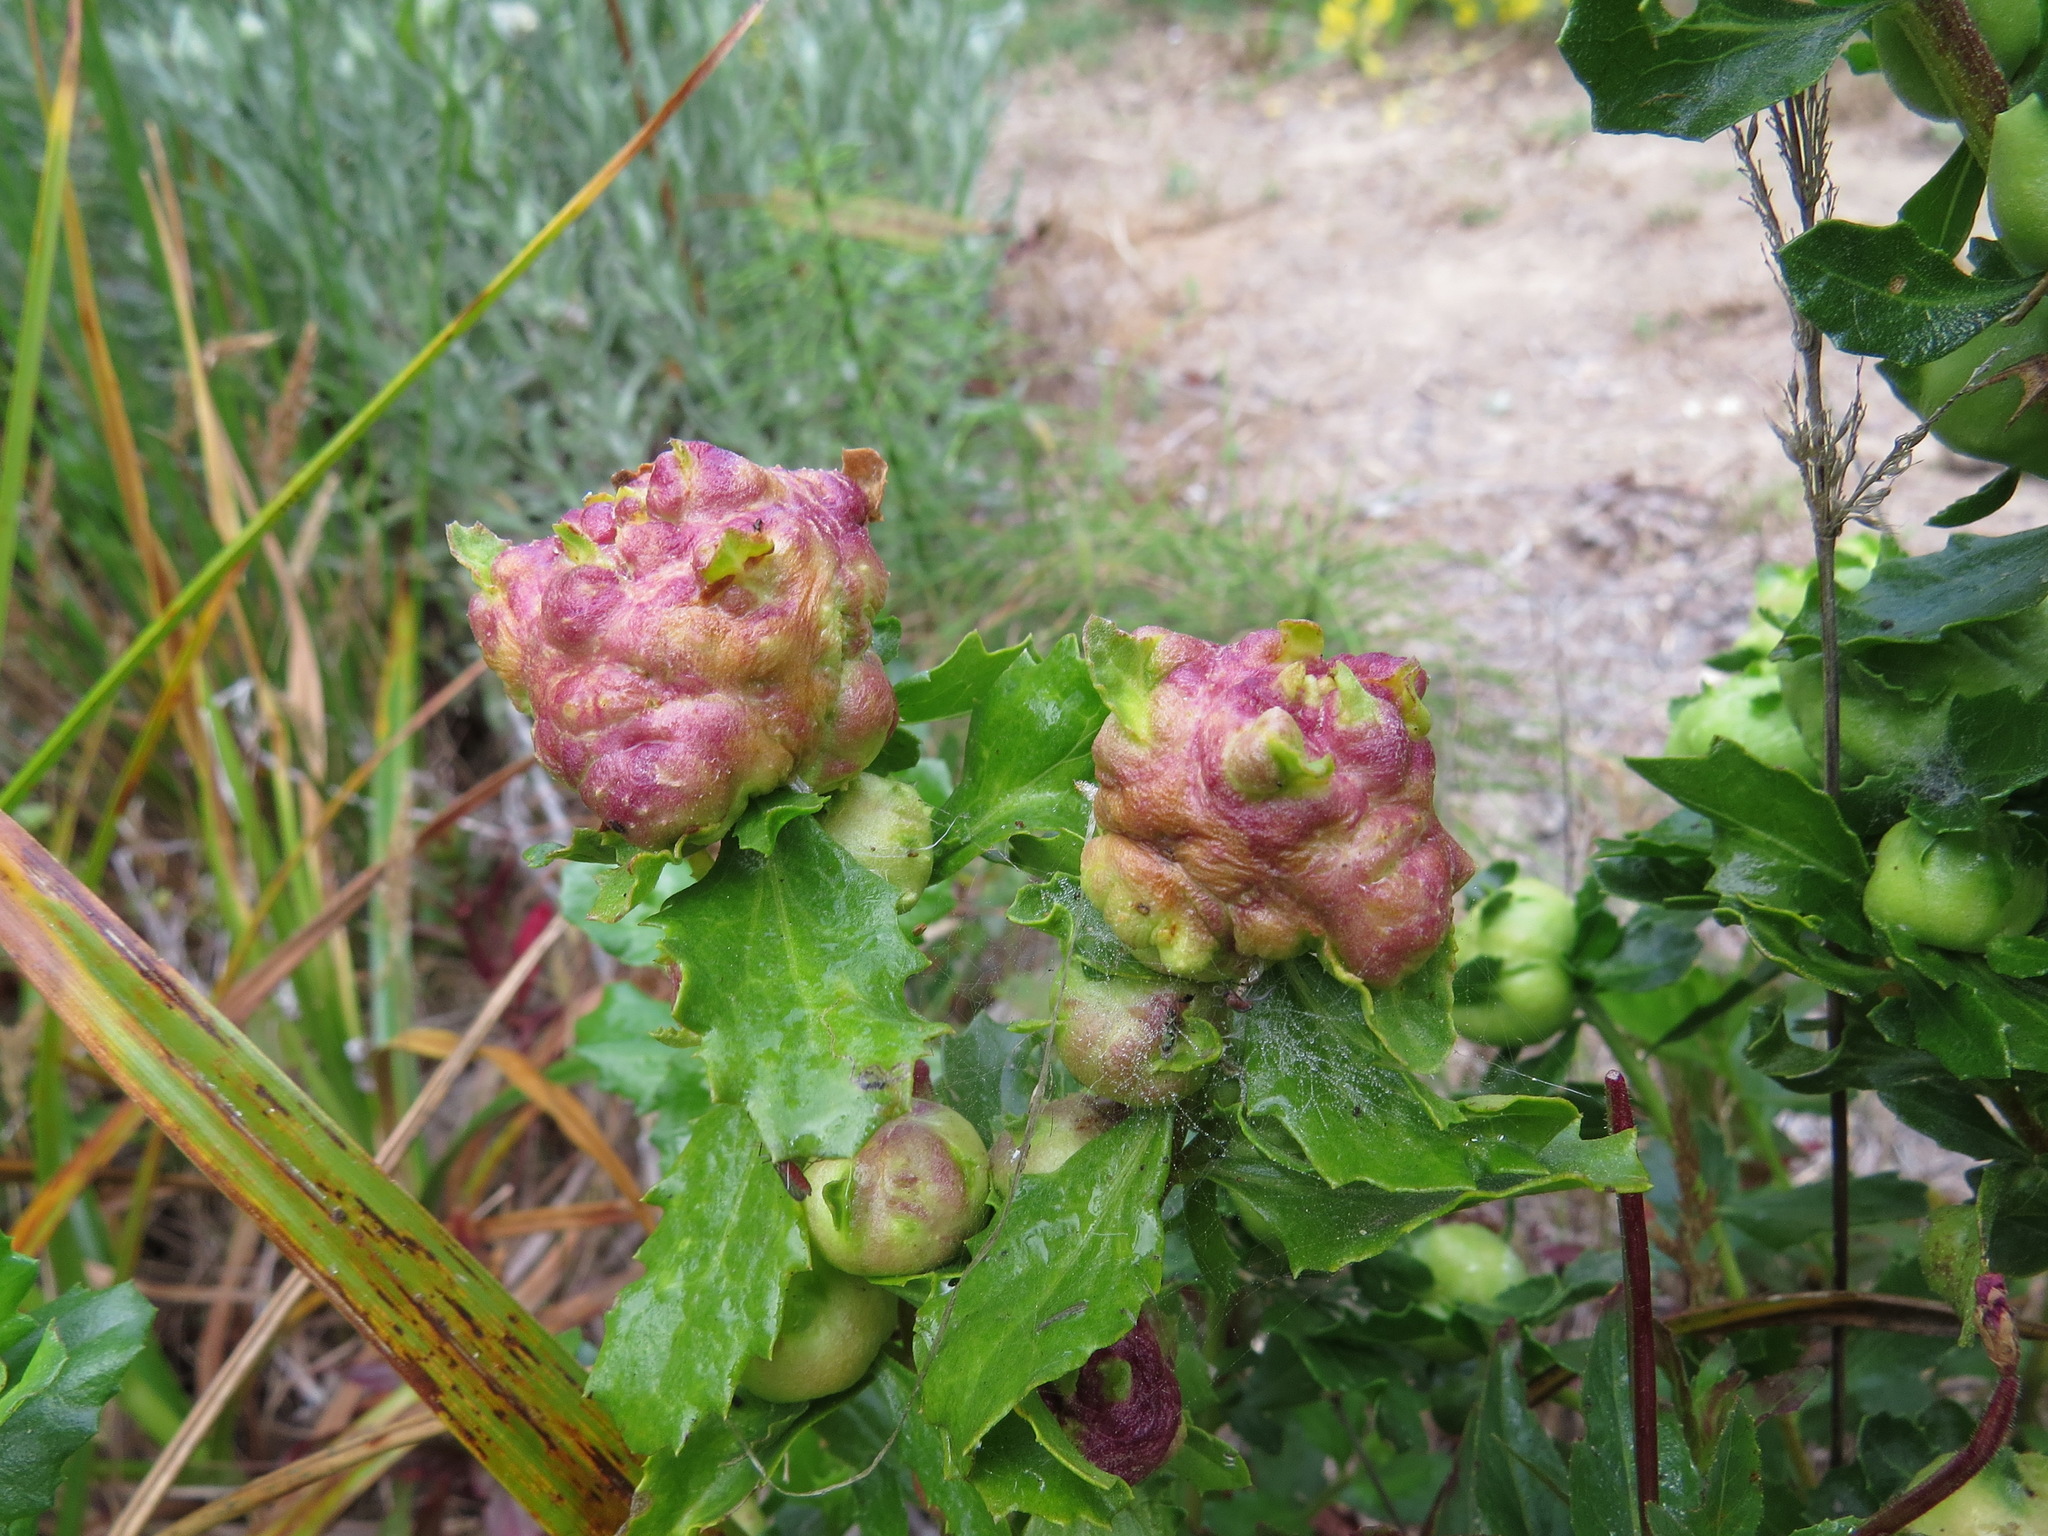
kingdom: Animalia
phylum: Arthropoda
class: Insecta
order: Diptera
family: Cecidomyiidae
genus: Rhopalomyia
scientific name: Rhopalomyia californica
